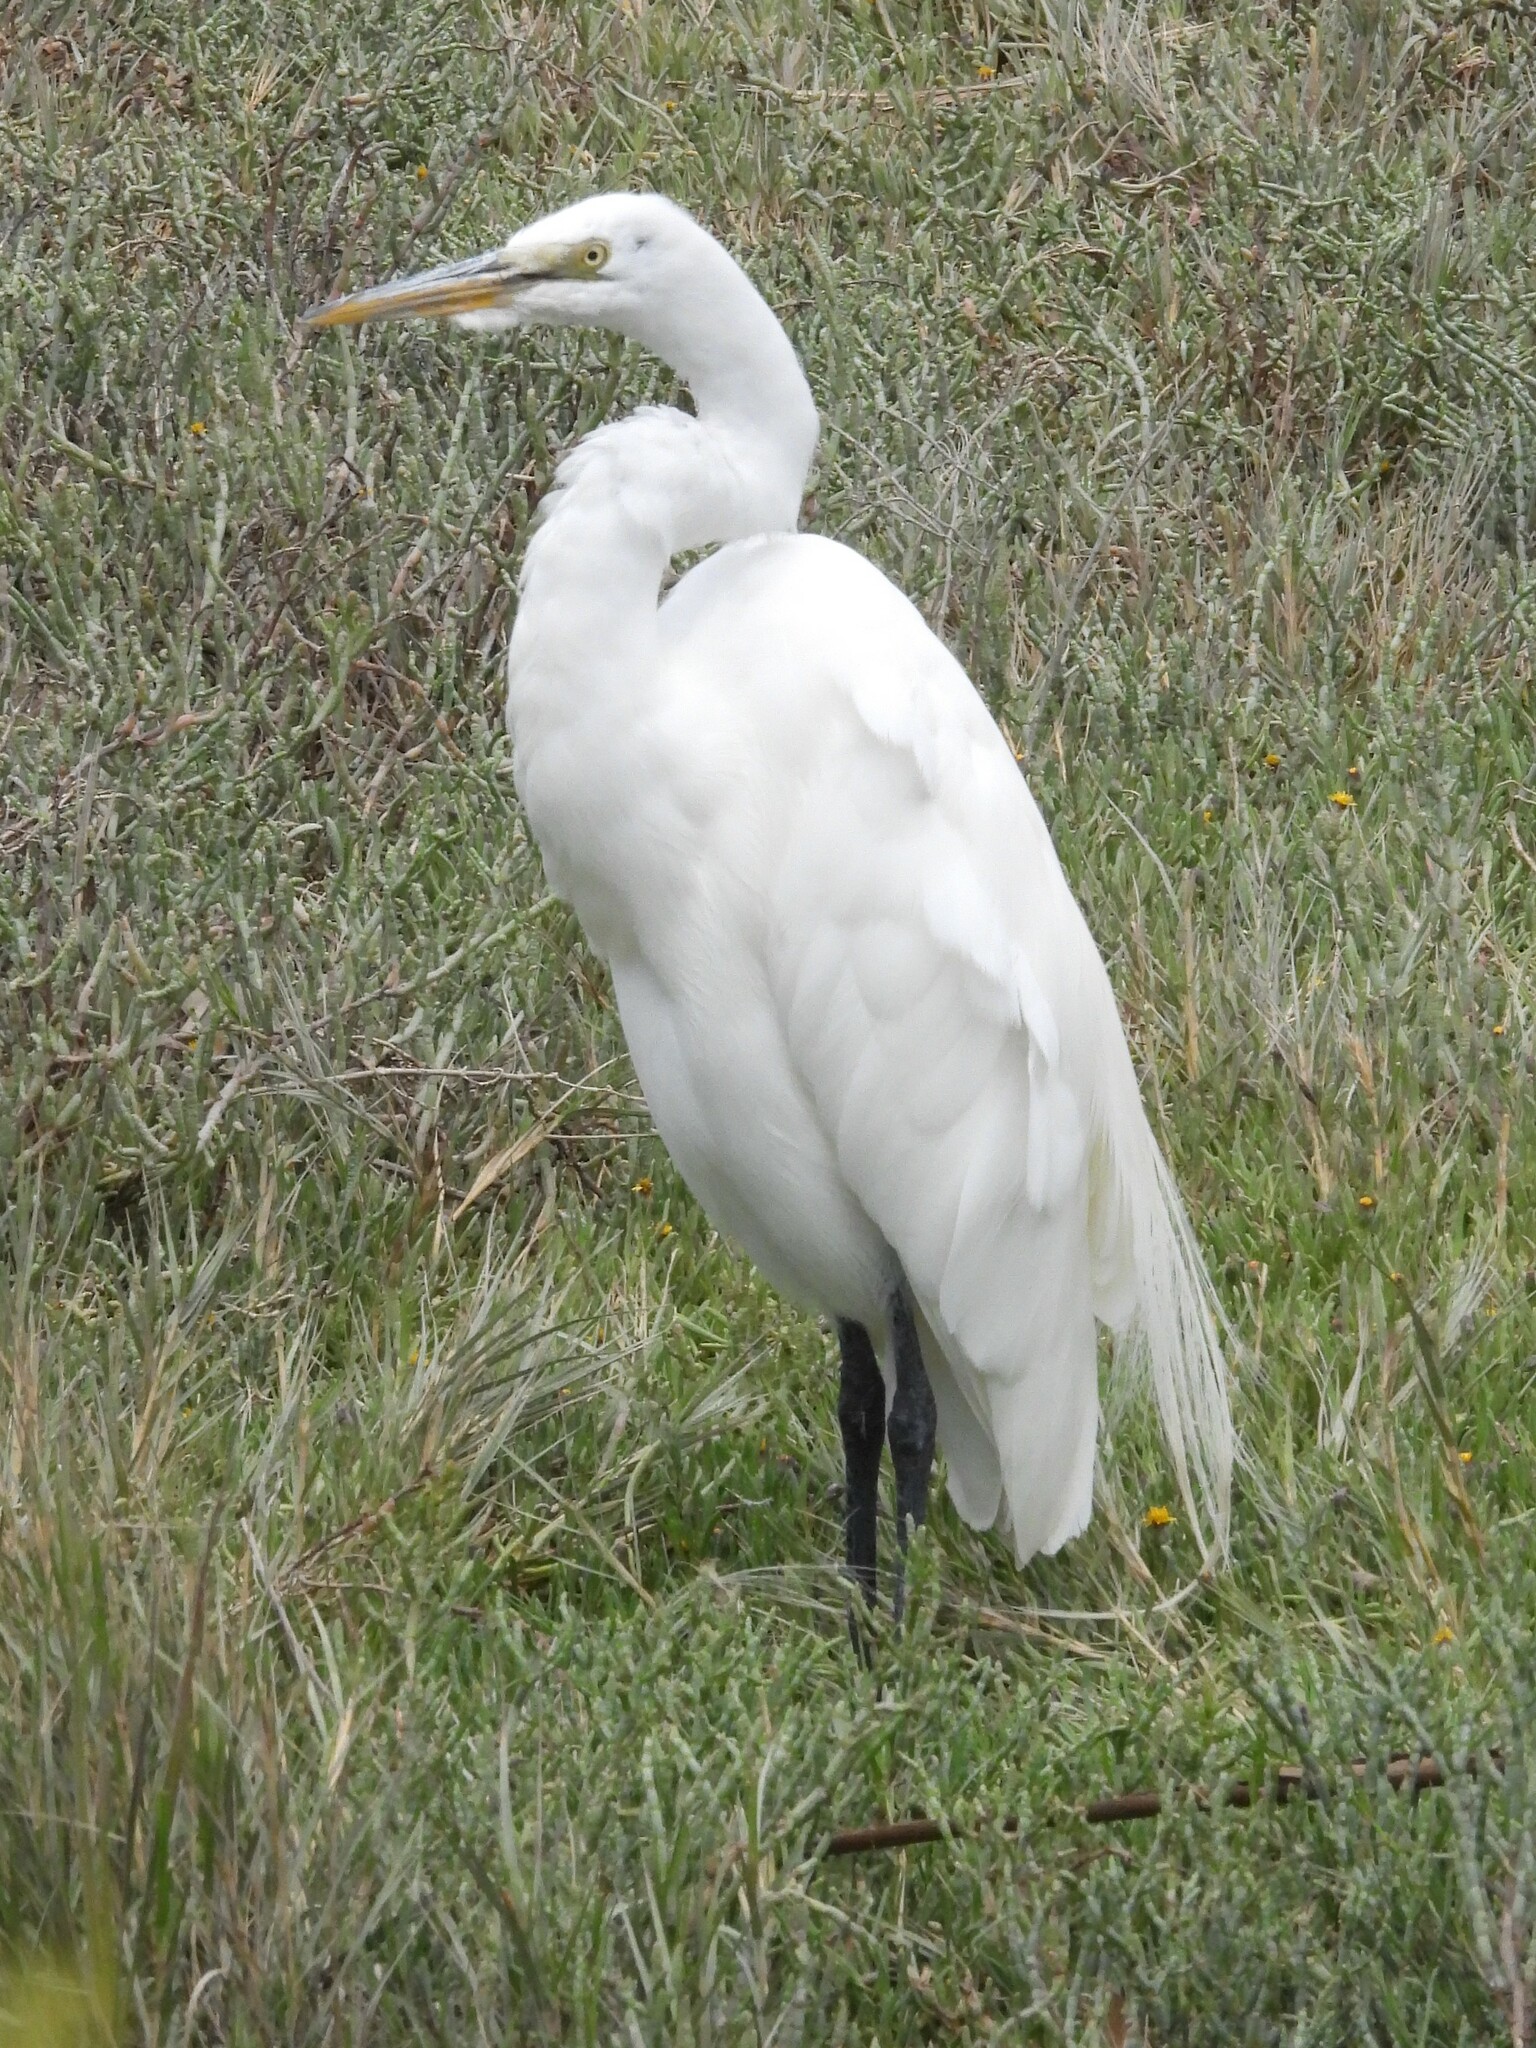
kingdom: Animalia
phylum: Chordata
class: Aves
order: Pelecaniformes
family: Ardeidae
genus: Ardea
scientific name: Ardea alba
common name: Great egret
